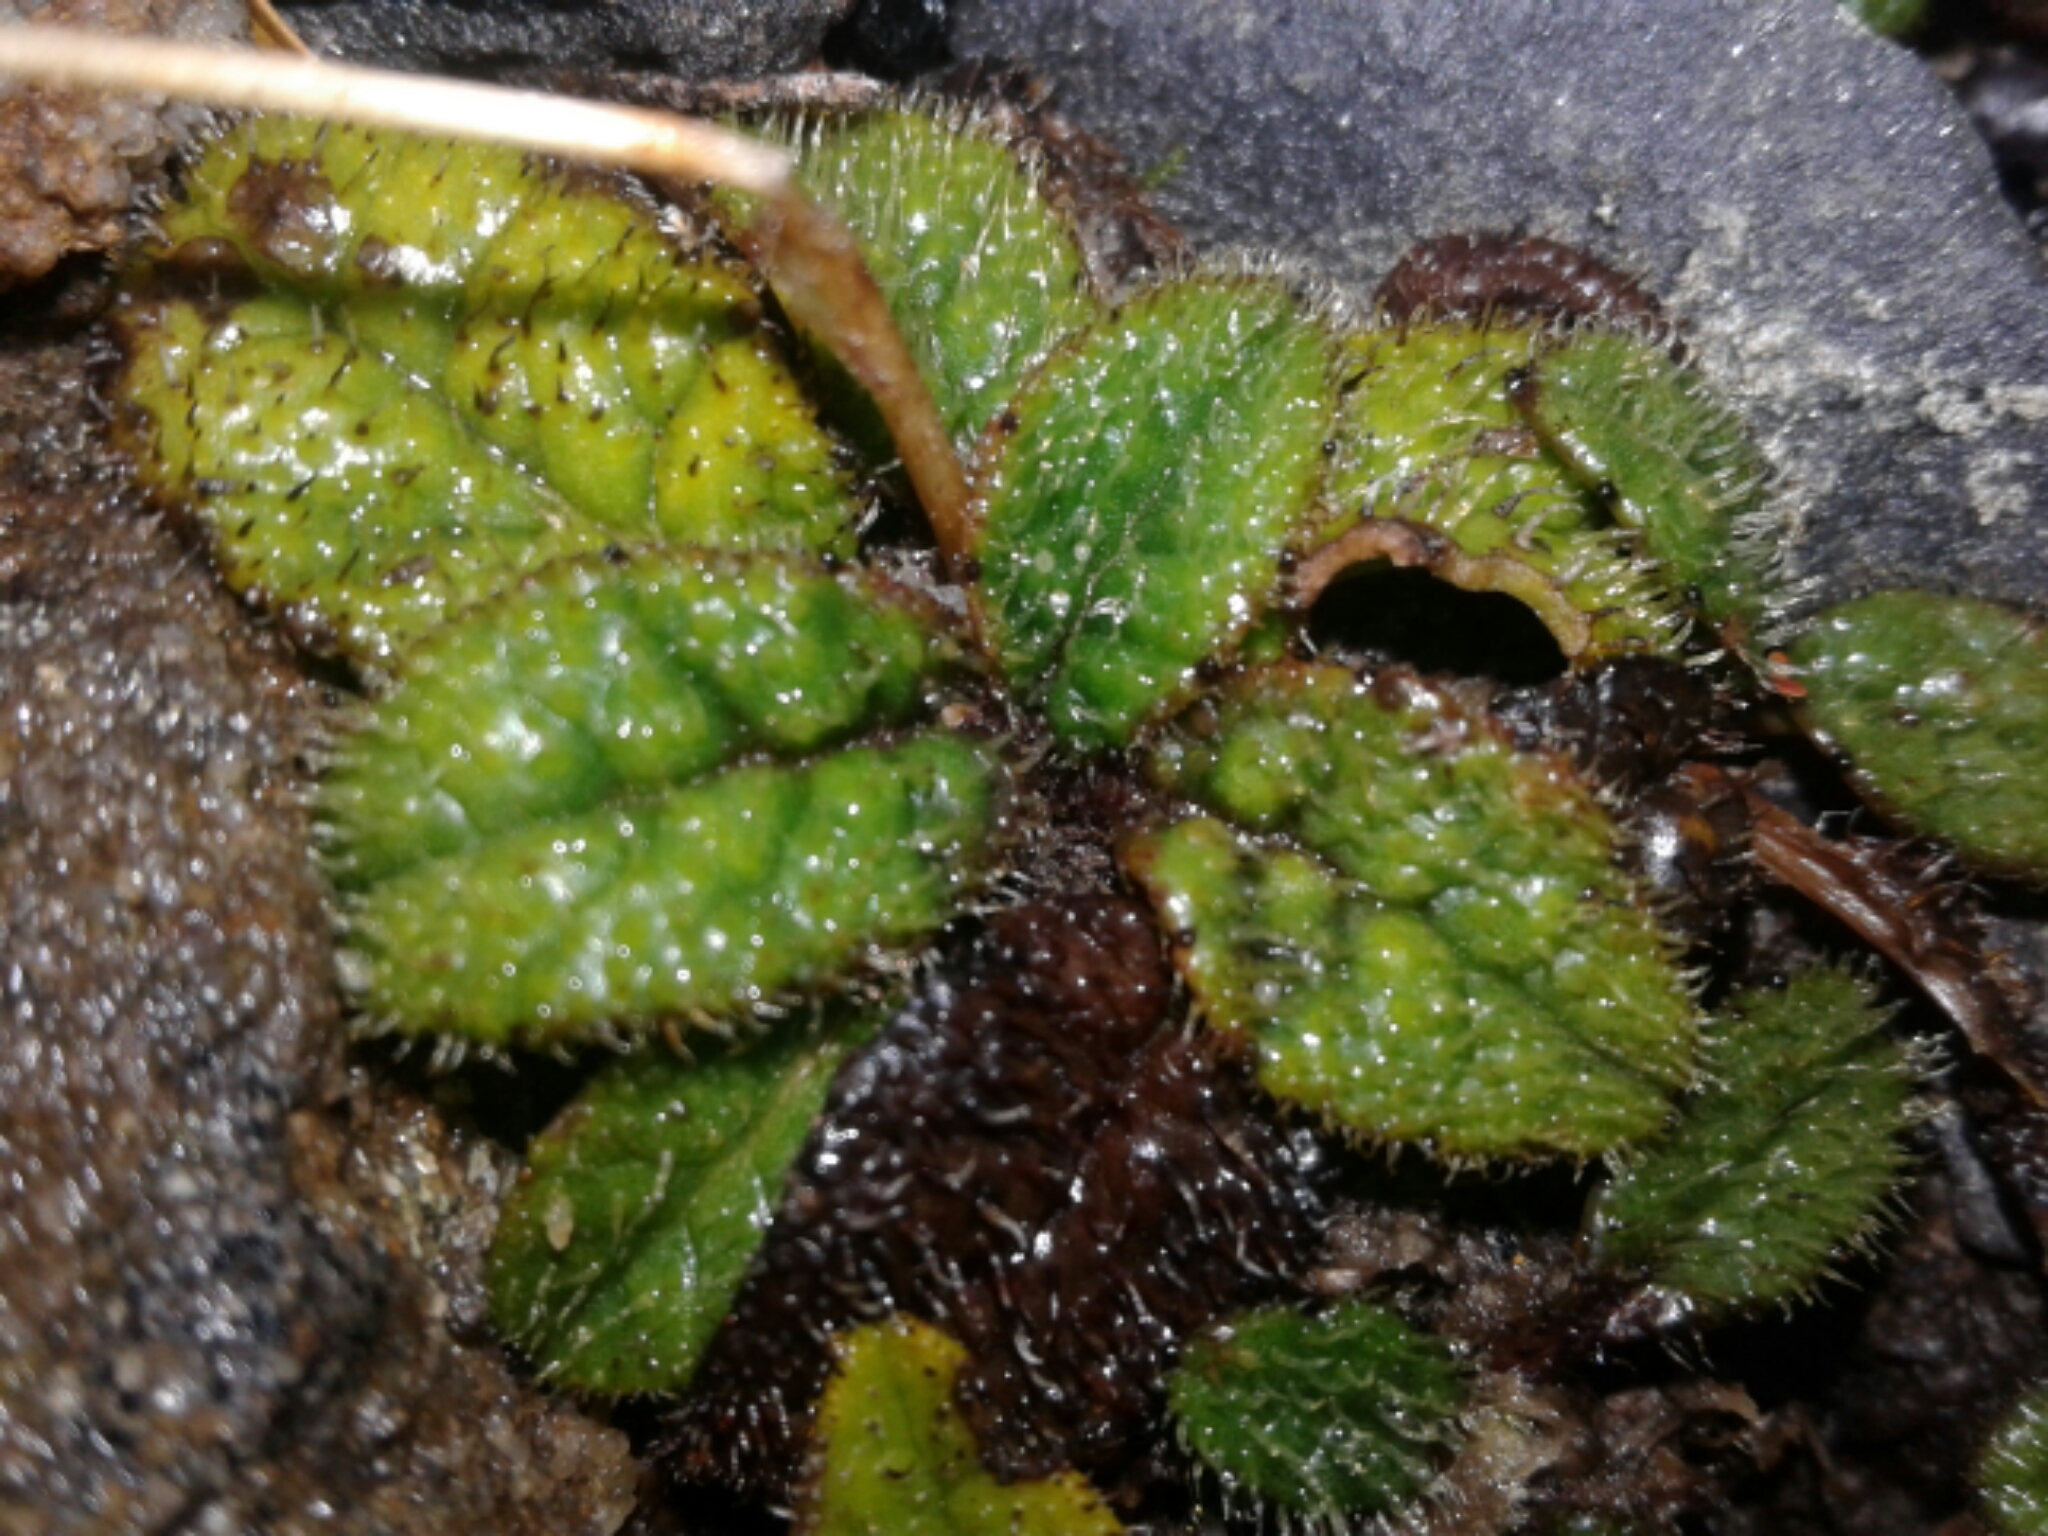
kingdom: Plantae
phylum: Tracheophyta
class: Magnoliopsida
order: Asterales
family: Asteraceae
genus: Brachyglottis
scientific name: Brachyglottis bellidioides
